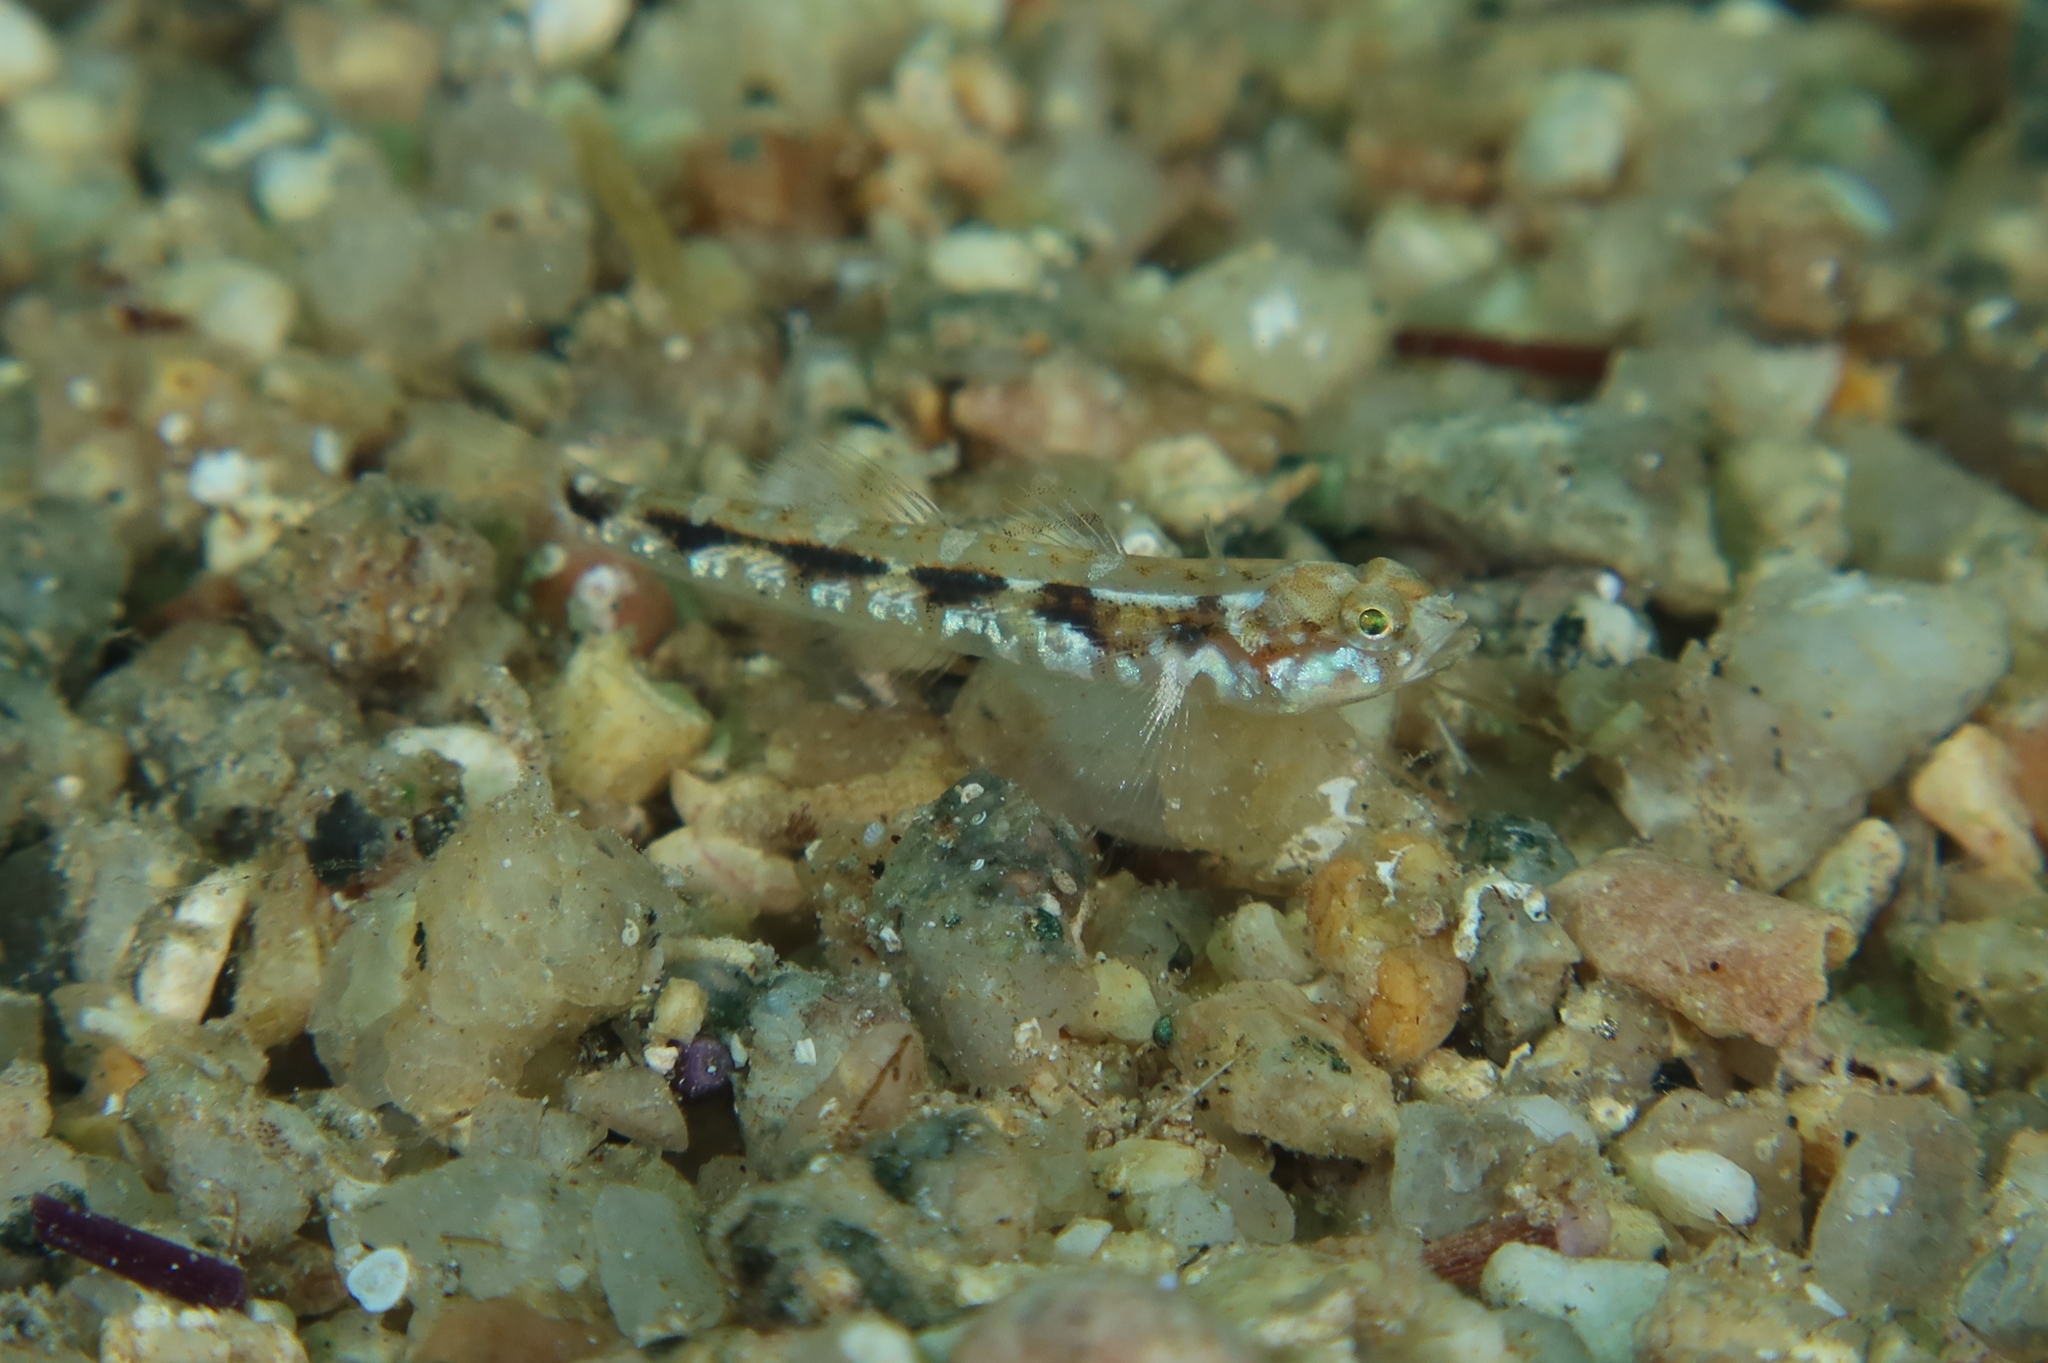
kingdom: Animalia
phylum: Chordata
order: Perciformes
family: Gobiidae
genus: Pomatoschistus
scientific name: Pomatoschistus bathi
